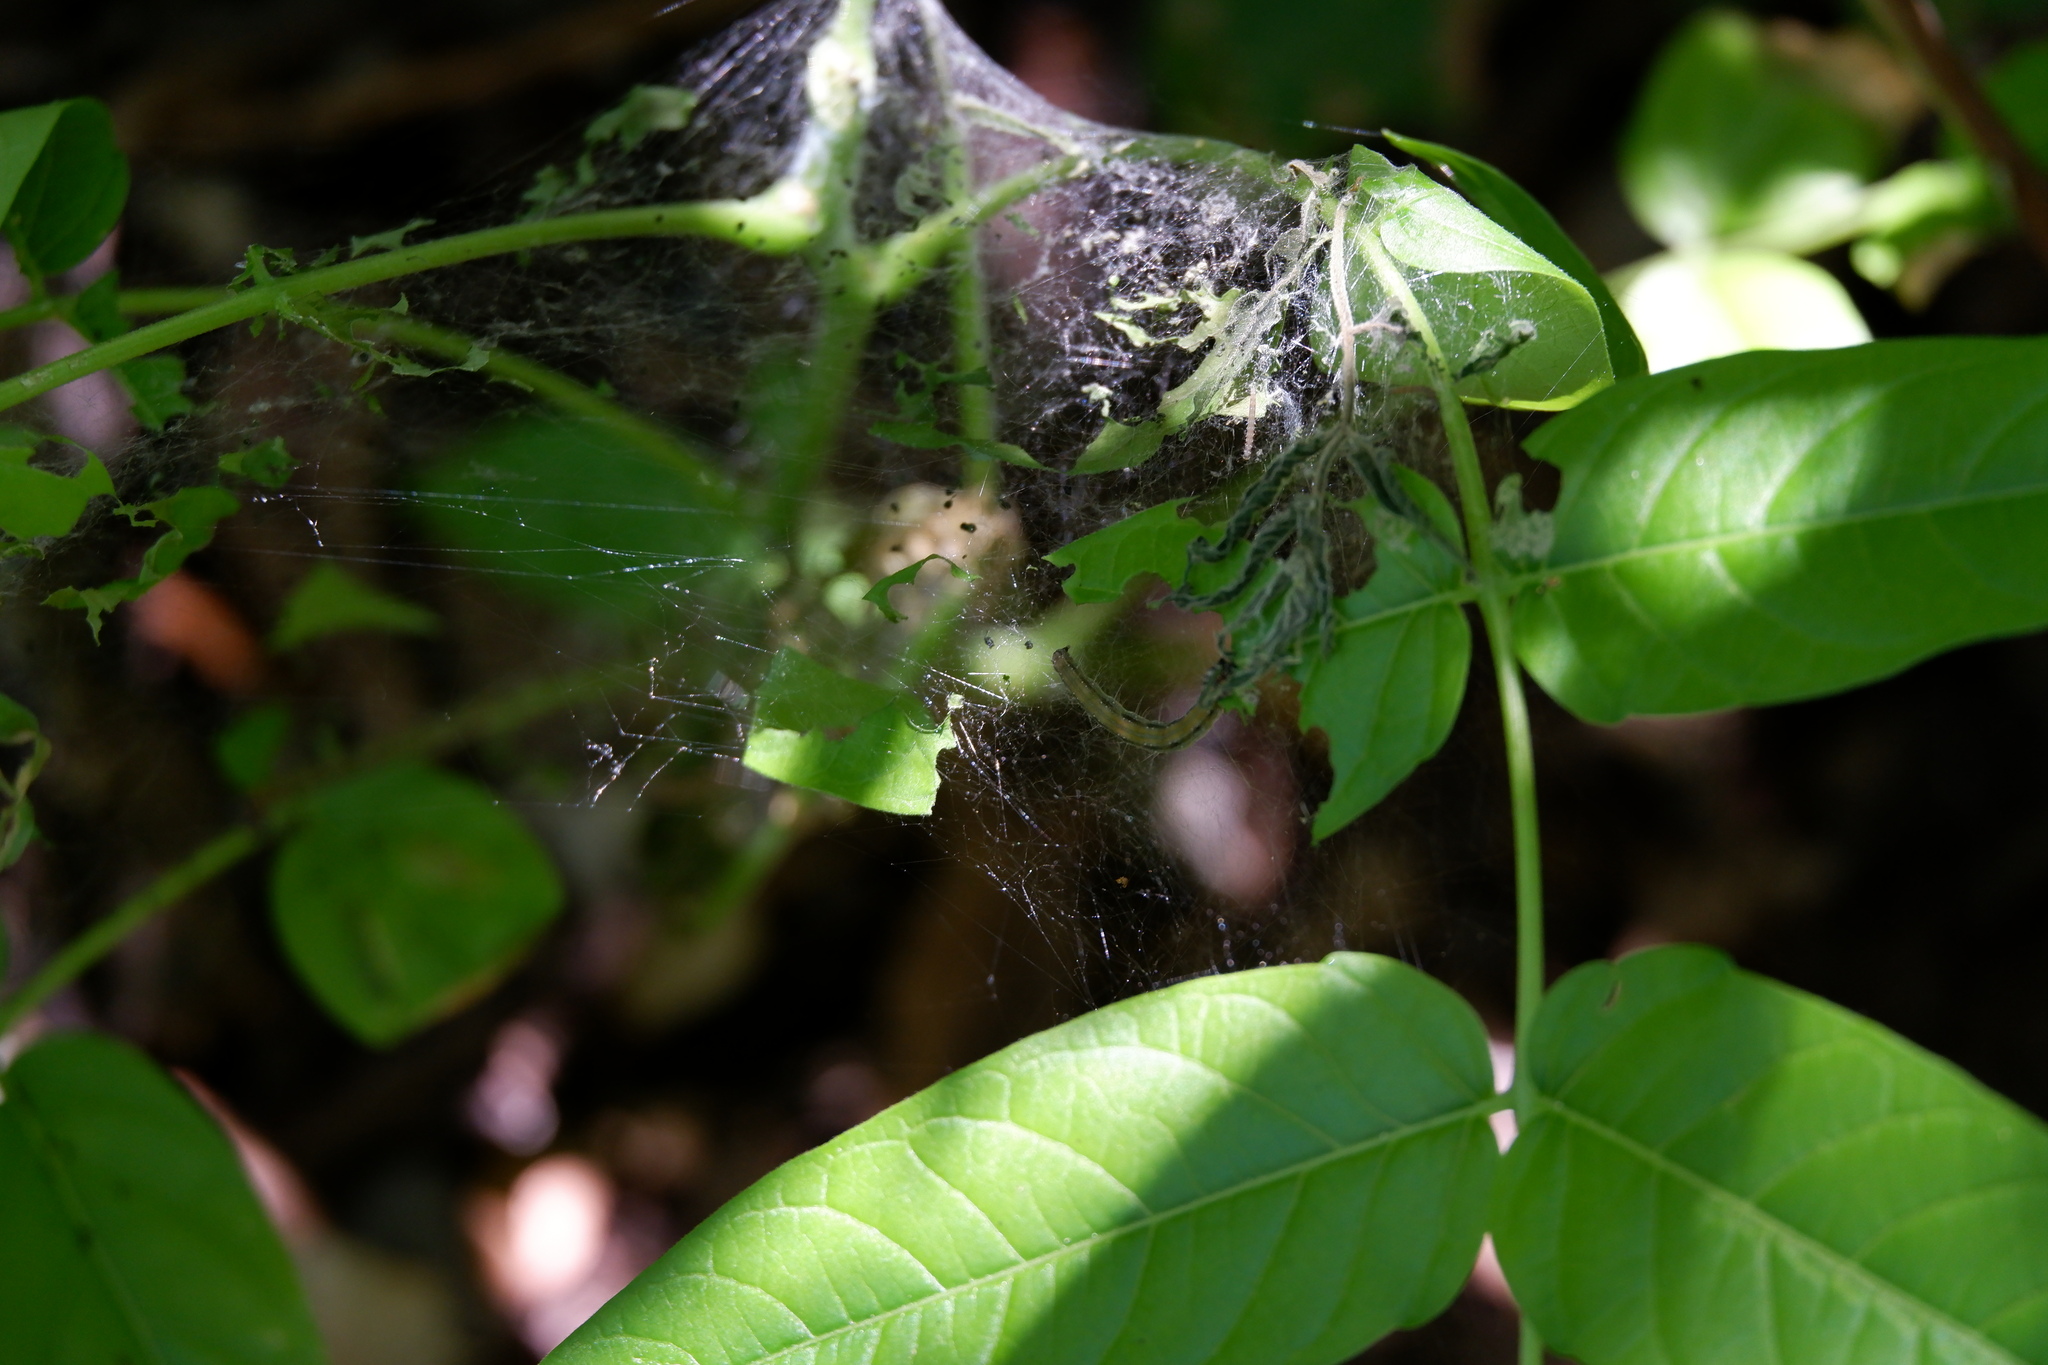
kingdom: Animalia
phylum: Arthropoda
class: Insecta
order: Lepidoptera
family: Attevidae
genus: Atteva
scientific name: Atteva punctella
